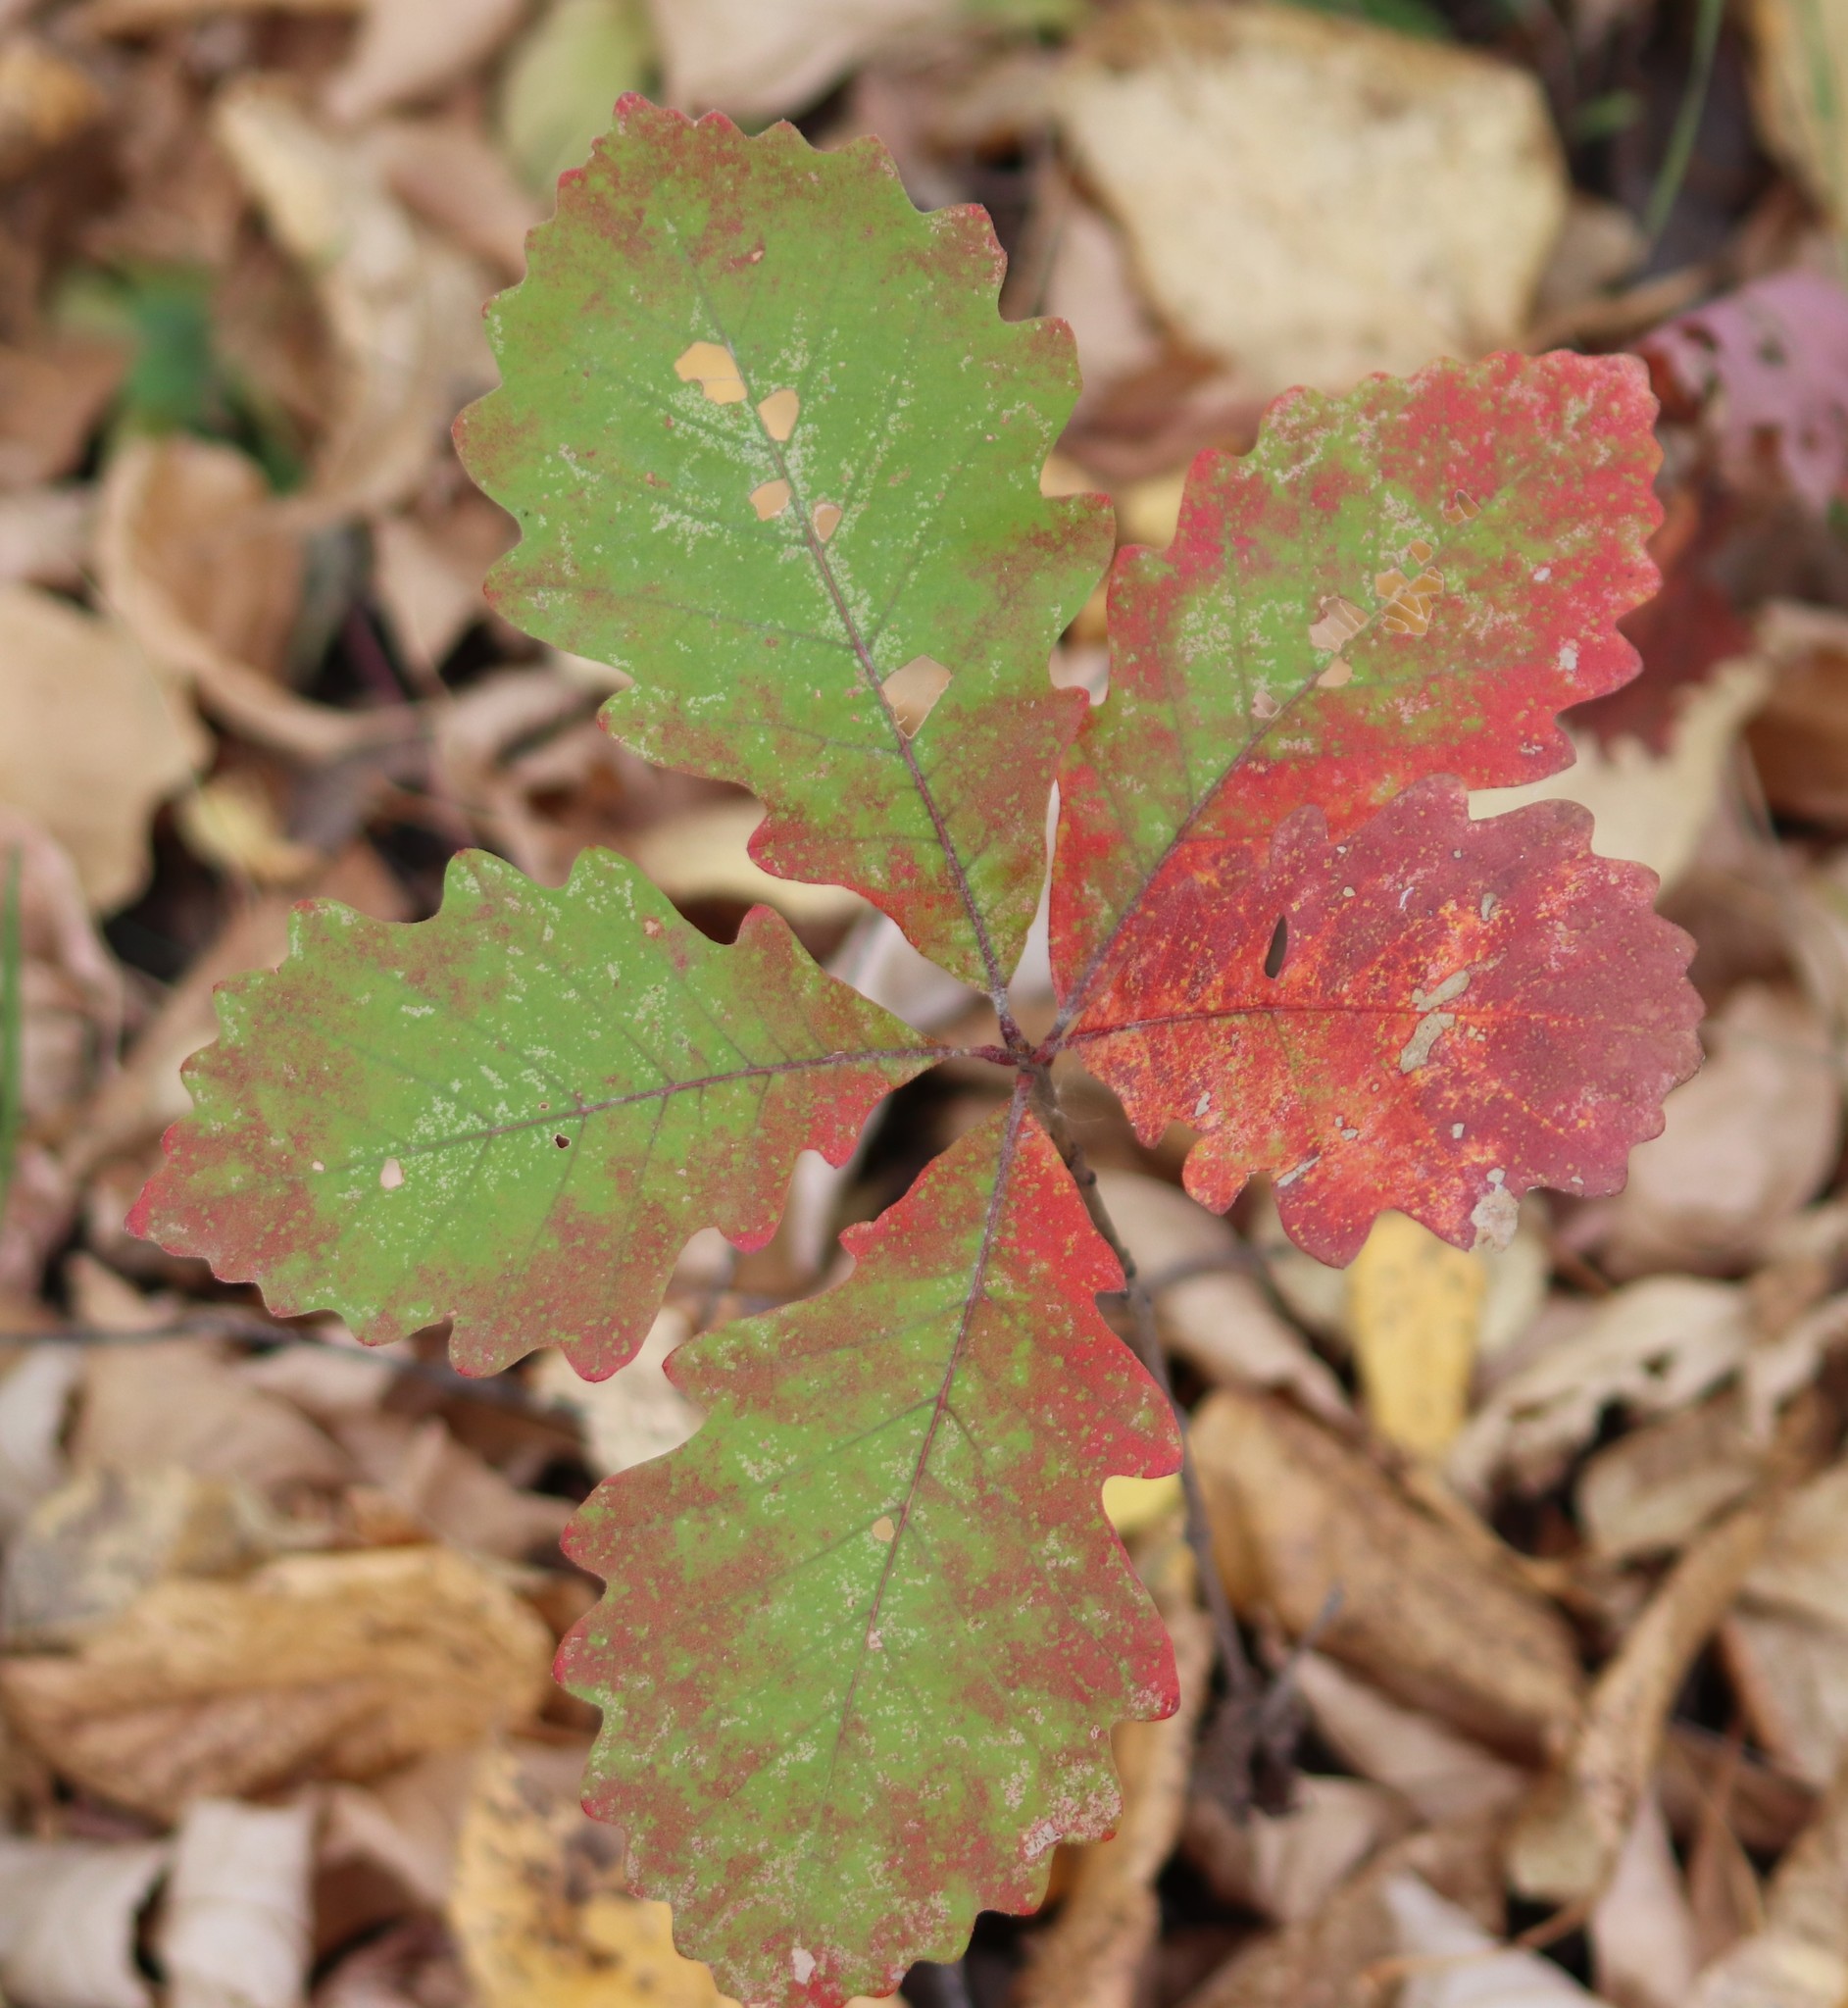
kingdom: Plantae
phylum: Tracheophyta
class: Magnoliopsida
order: Fagales
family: Fagaceae
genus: Quercus
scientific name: Quercus macrocarpa
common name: Bur oak
